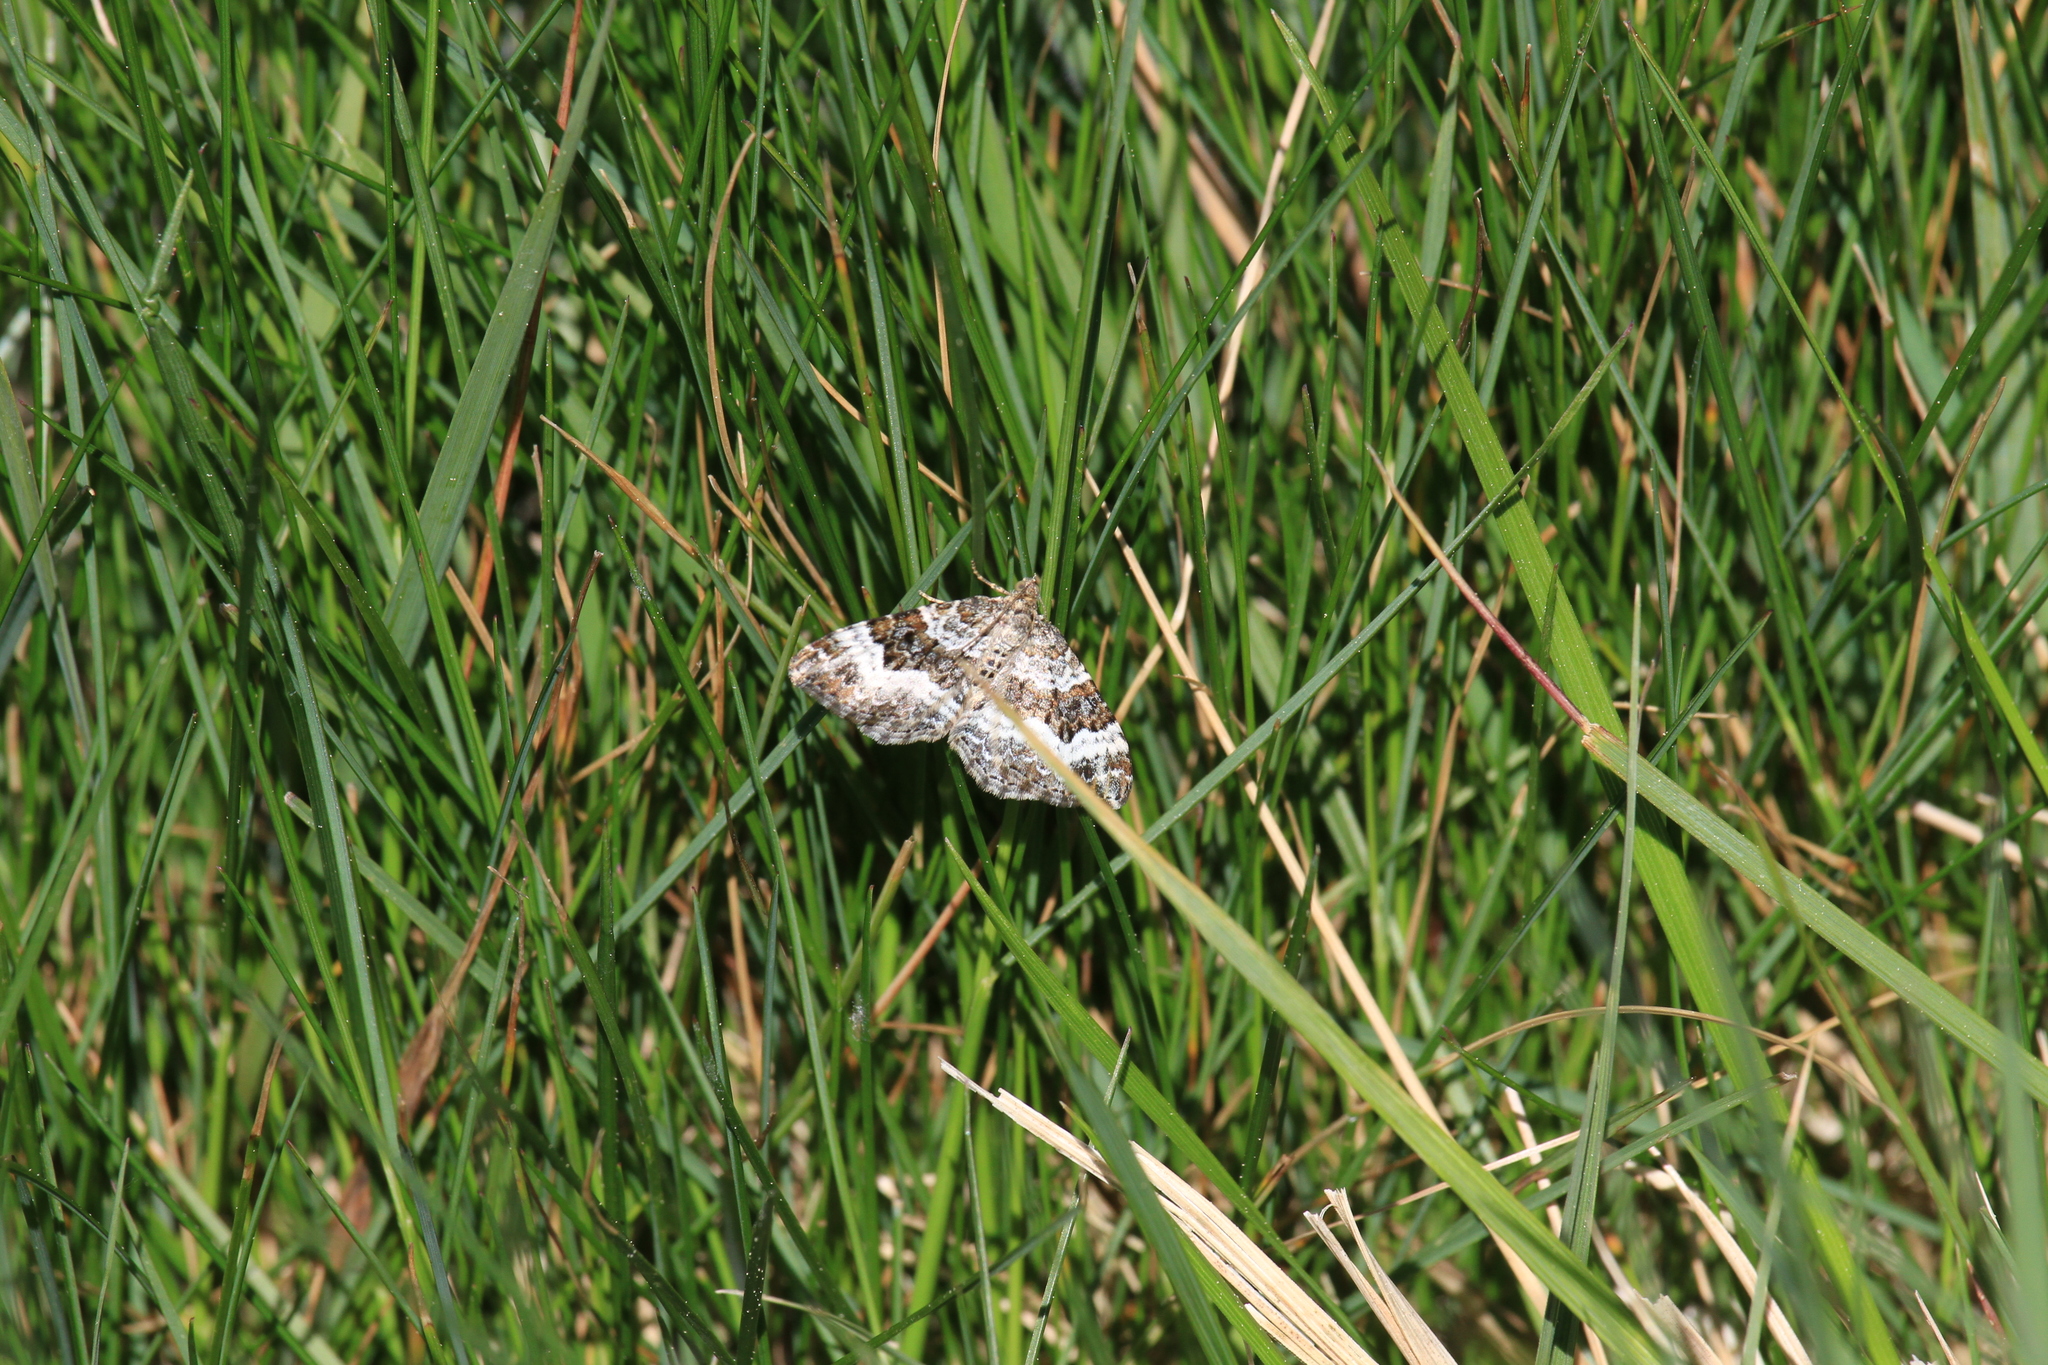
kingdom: Animalia
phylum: Arthropoda
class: Insecta
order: Lepidoptera
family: Geometridae
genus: Epirrhoe
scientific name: Epirrhoe alternata
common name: Common carpet
